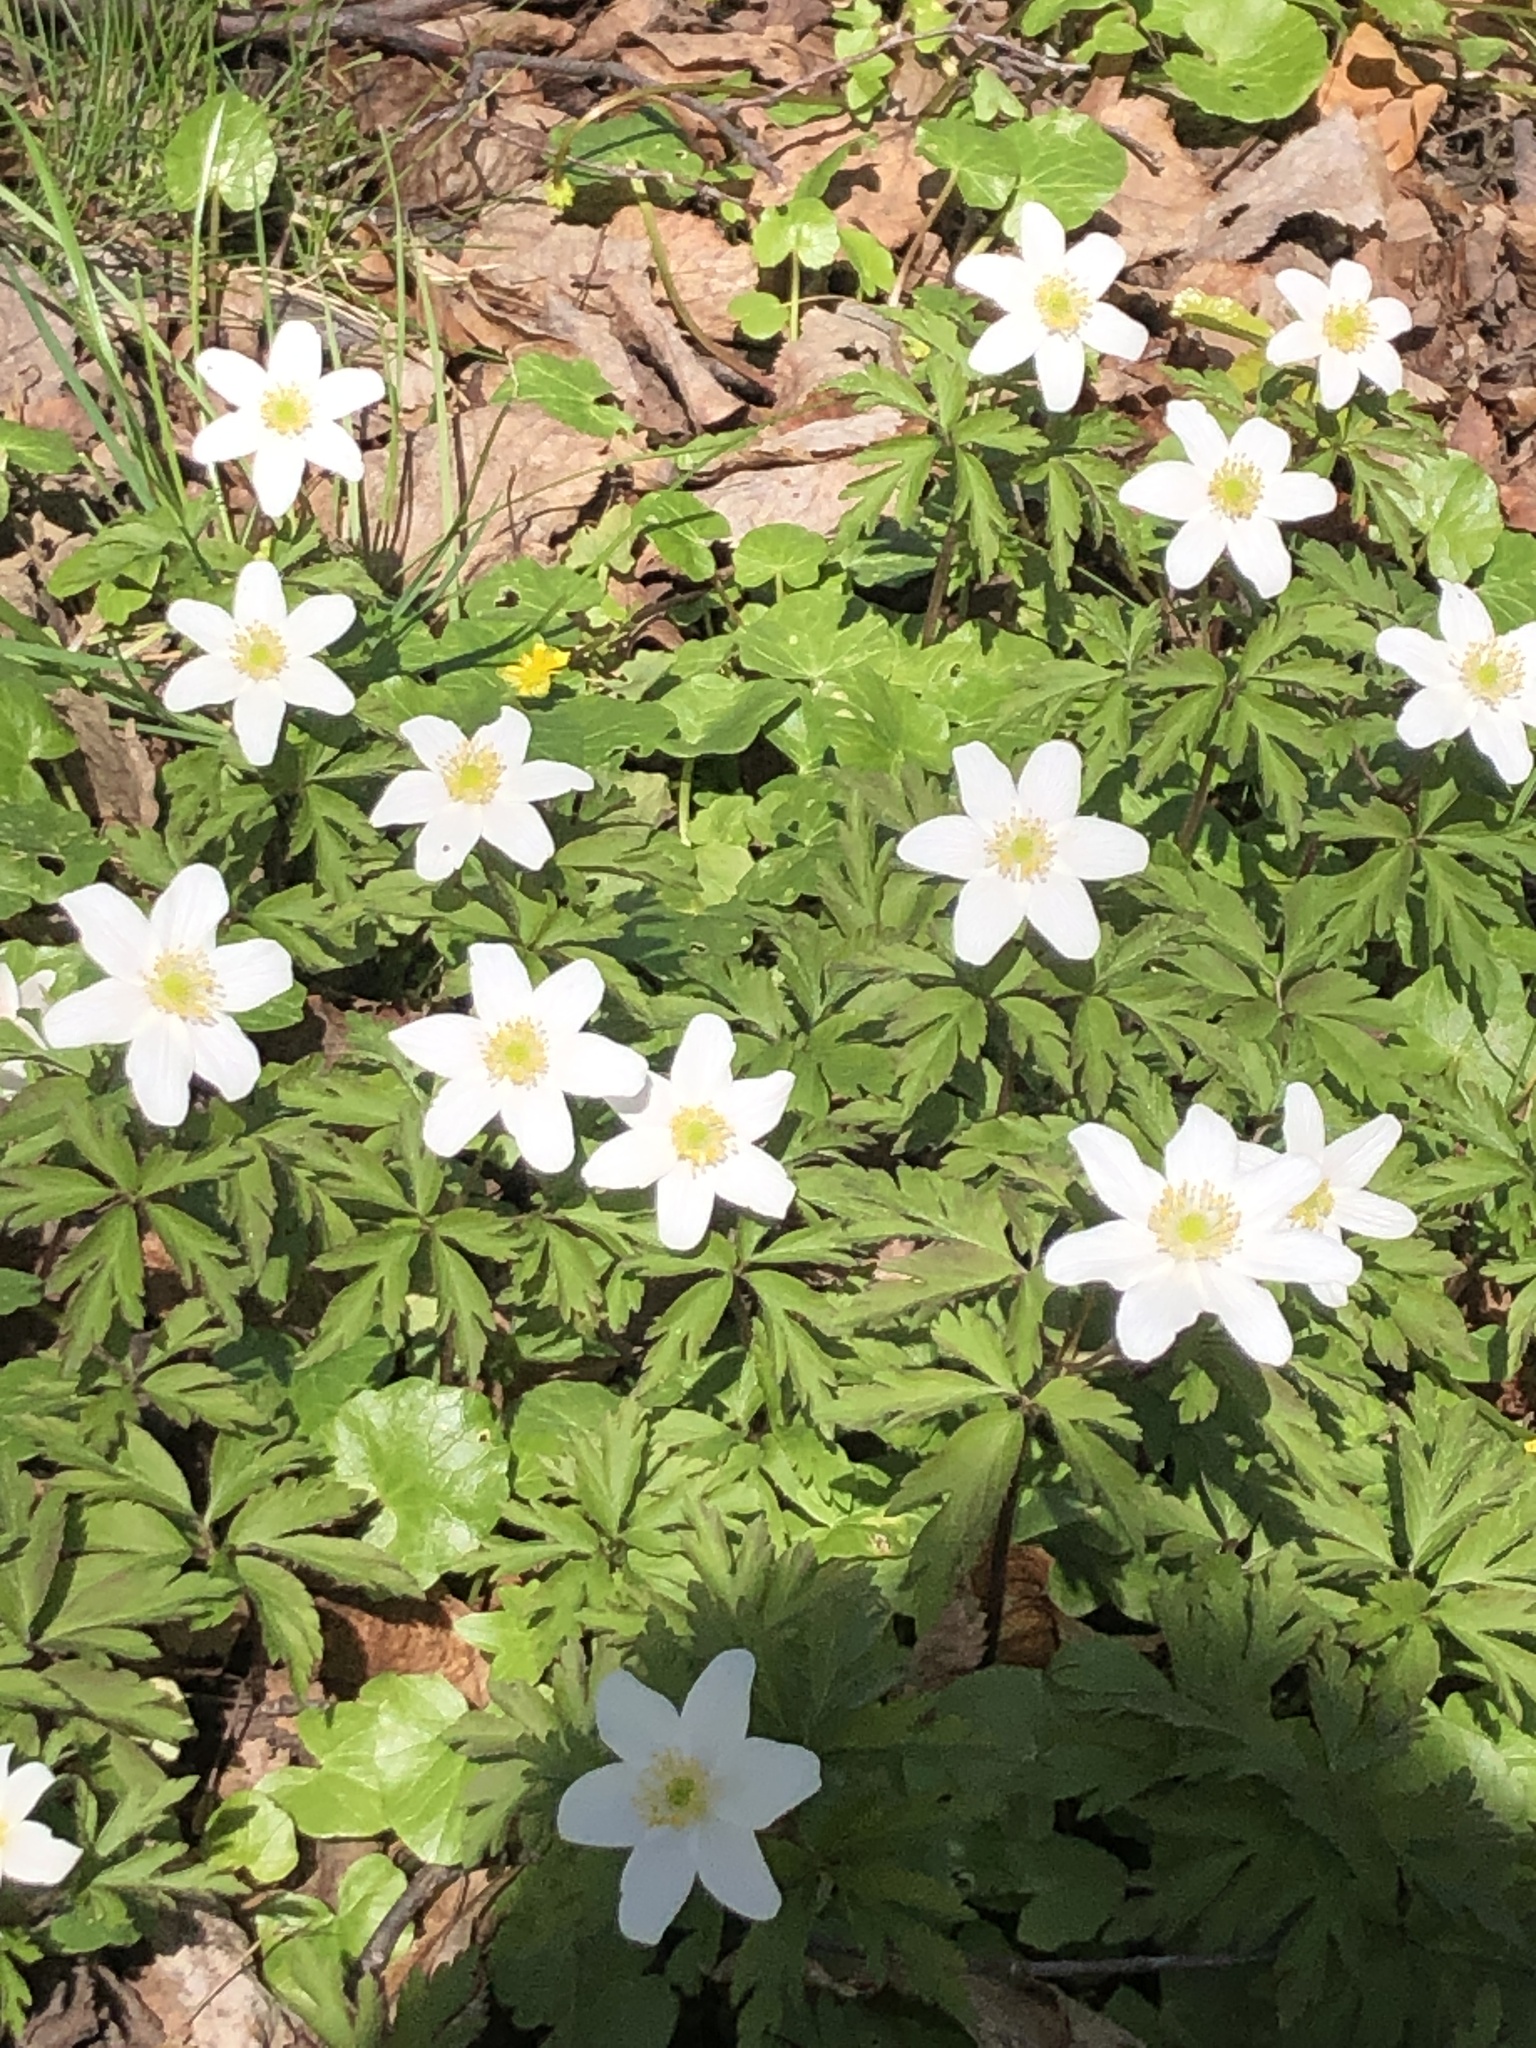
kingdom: Plantae
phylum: Tracheophyta
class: Magnoliopsida
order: Ranunculales
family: Ranunculaceae
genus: Anemone
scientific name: Anemone nemorosa
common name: Wood anemone
